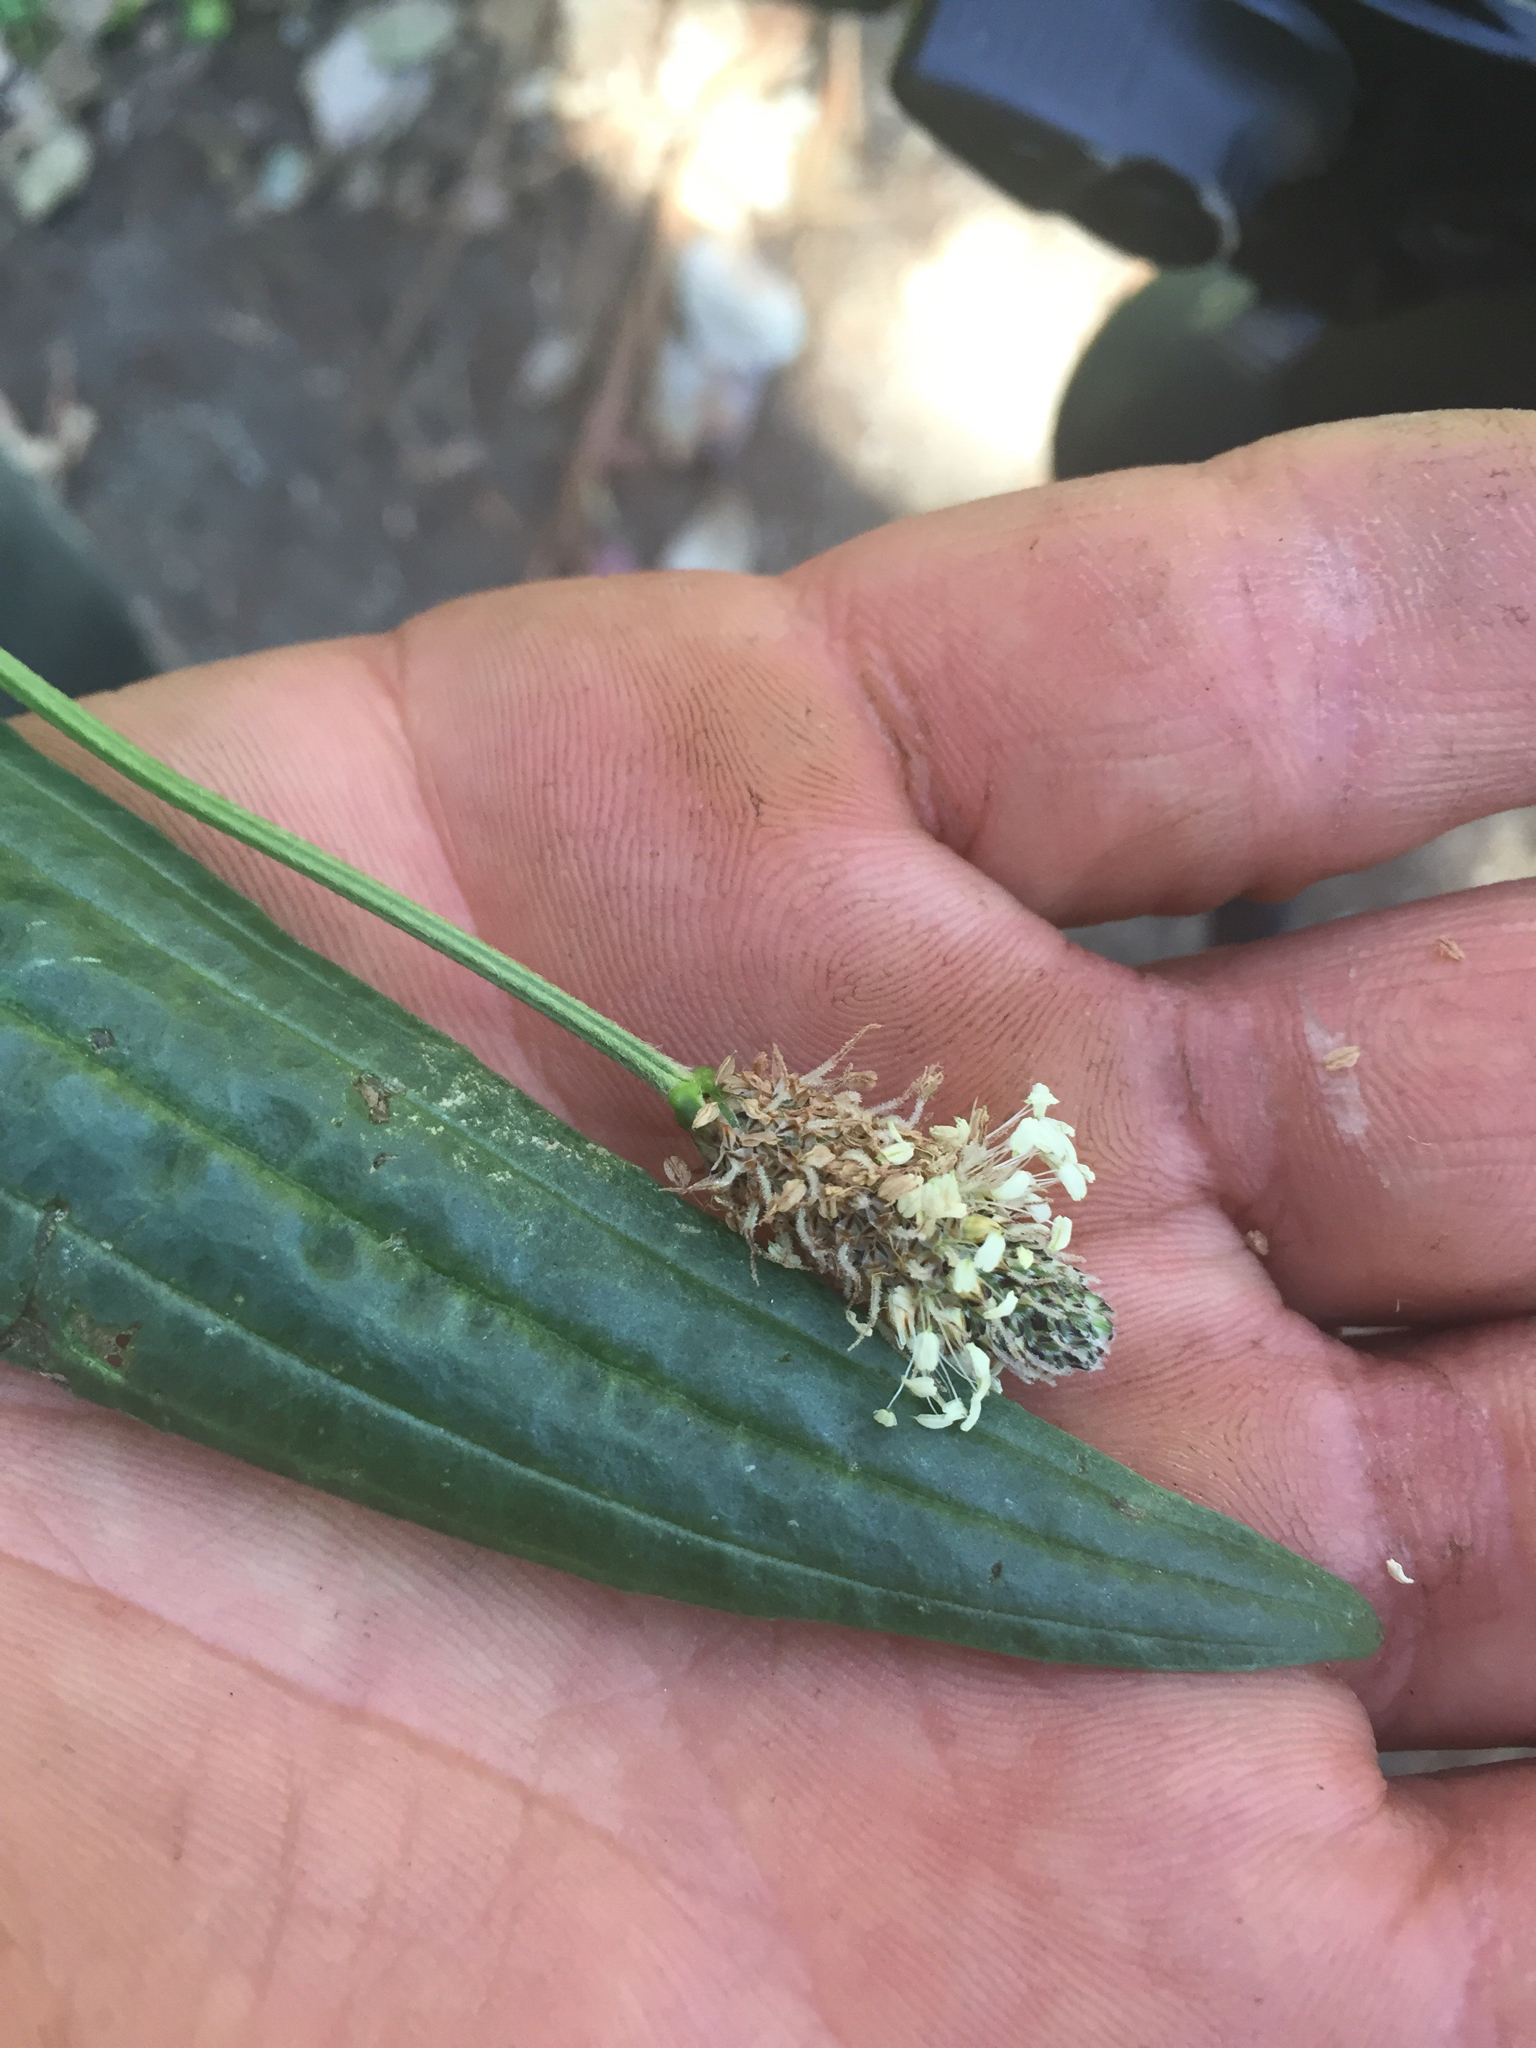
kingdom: Plantae
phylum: Tracheophyta
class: Magnoliopsida
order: Lamiales
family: Plantaginaceae
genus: Plantago
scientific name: Plantago lanceolata
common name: Ribwort plantain
